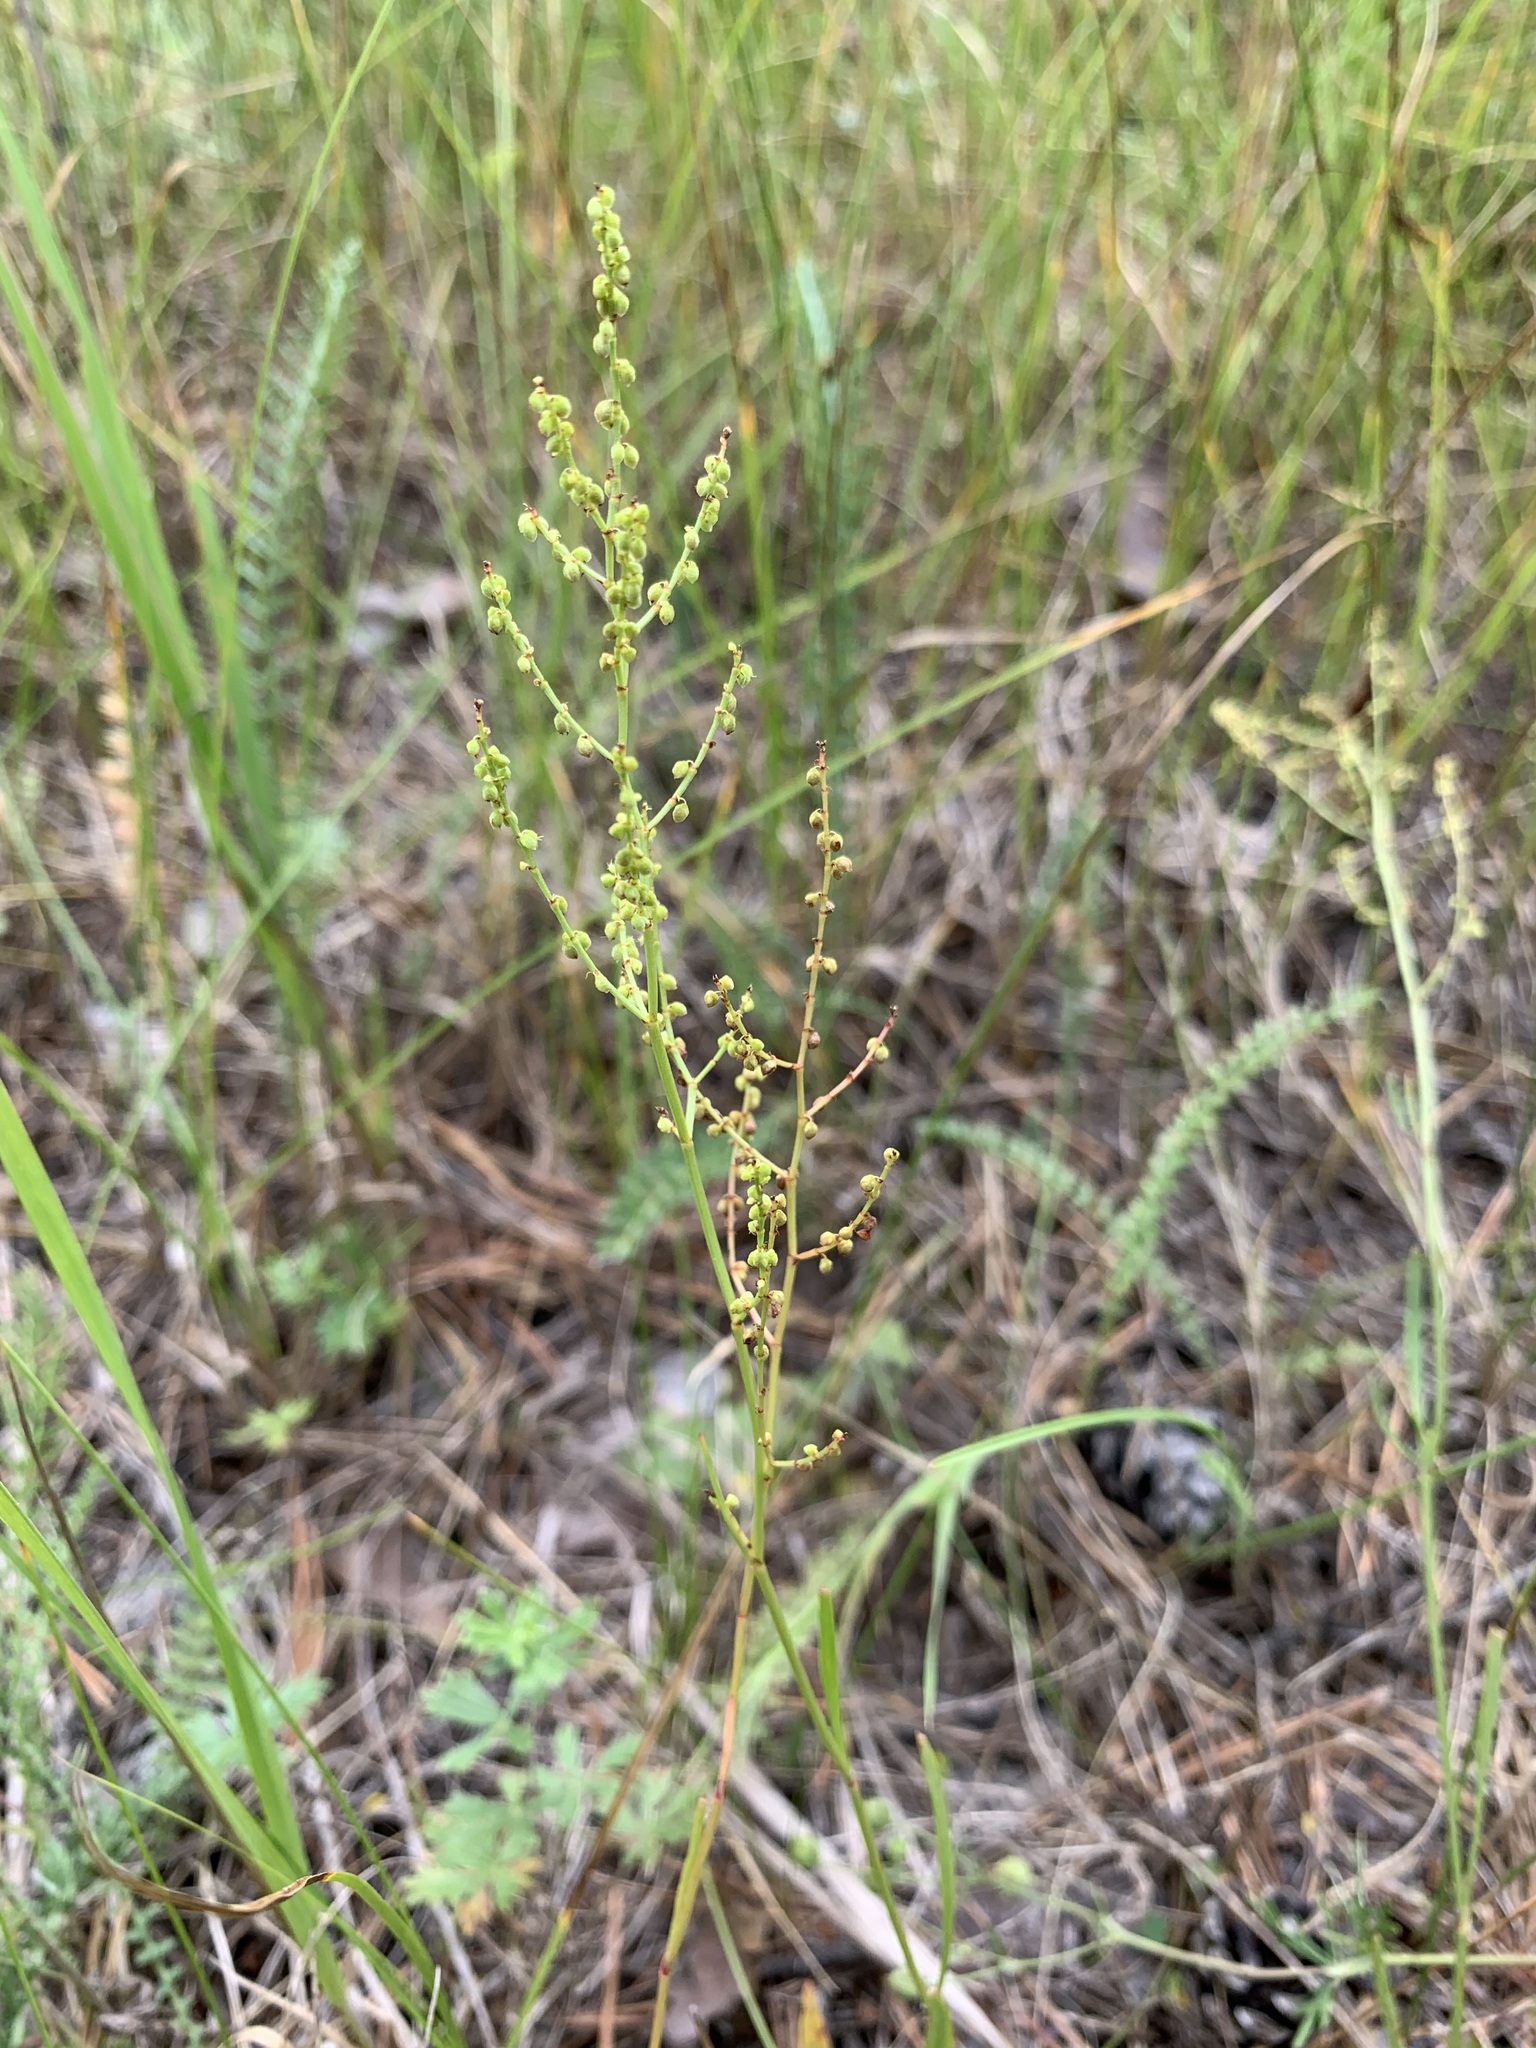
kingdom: Plantae
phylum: Tracheophyta
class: Magnoliopsida
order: Caryophyllales
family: Polygonaceae
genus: Rumex
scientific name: Rumex acetosella
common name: Common sheep sorrel
